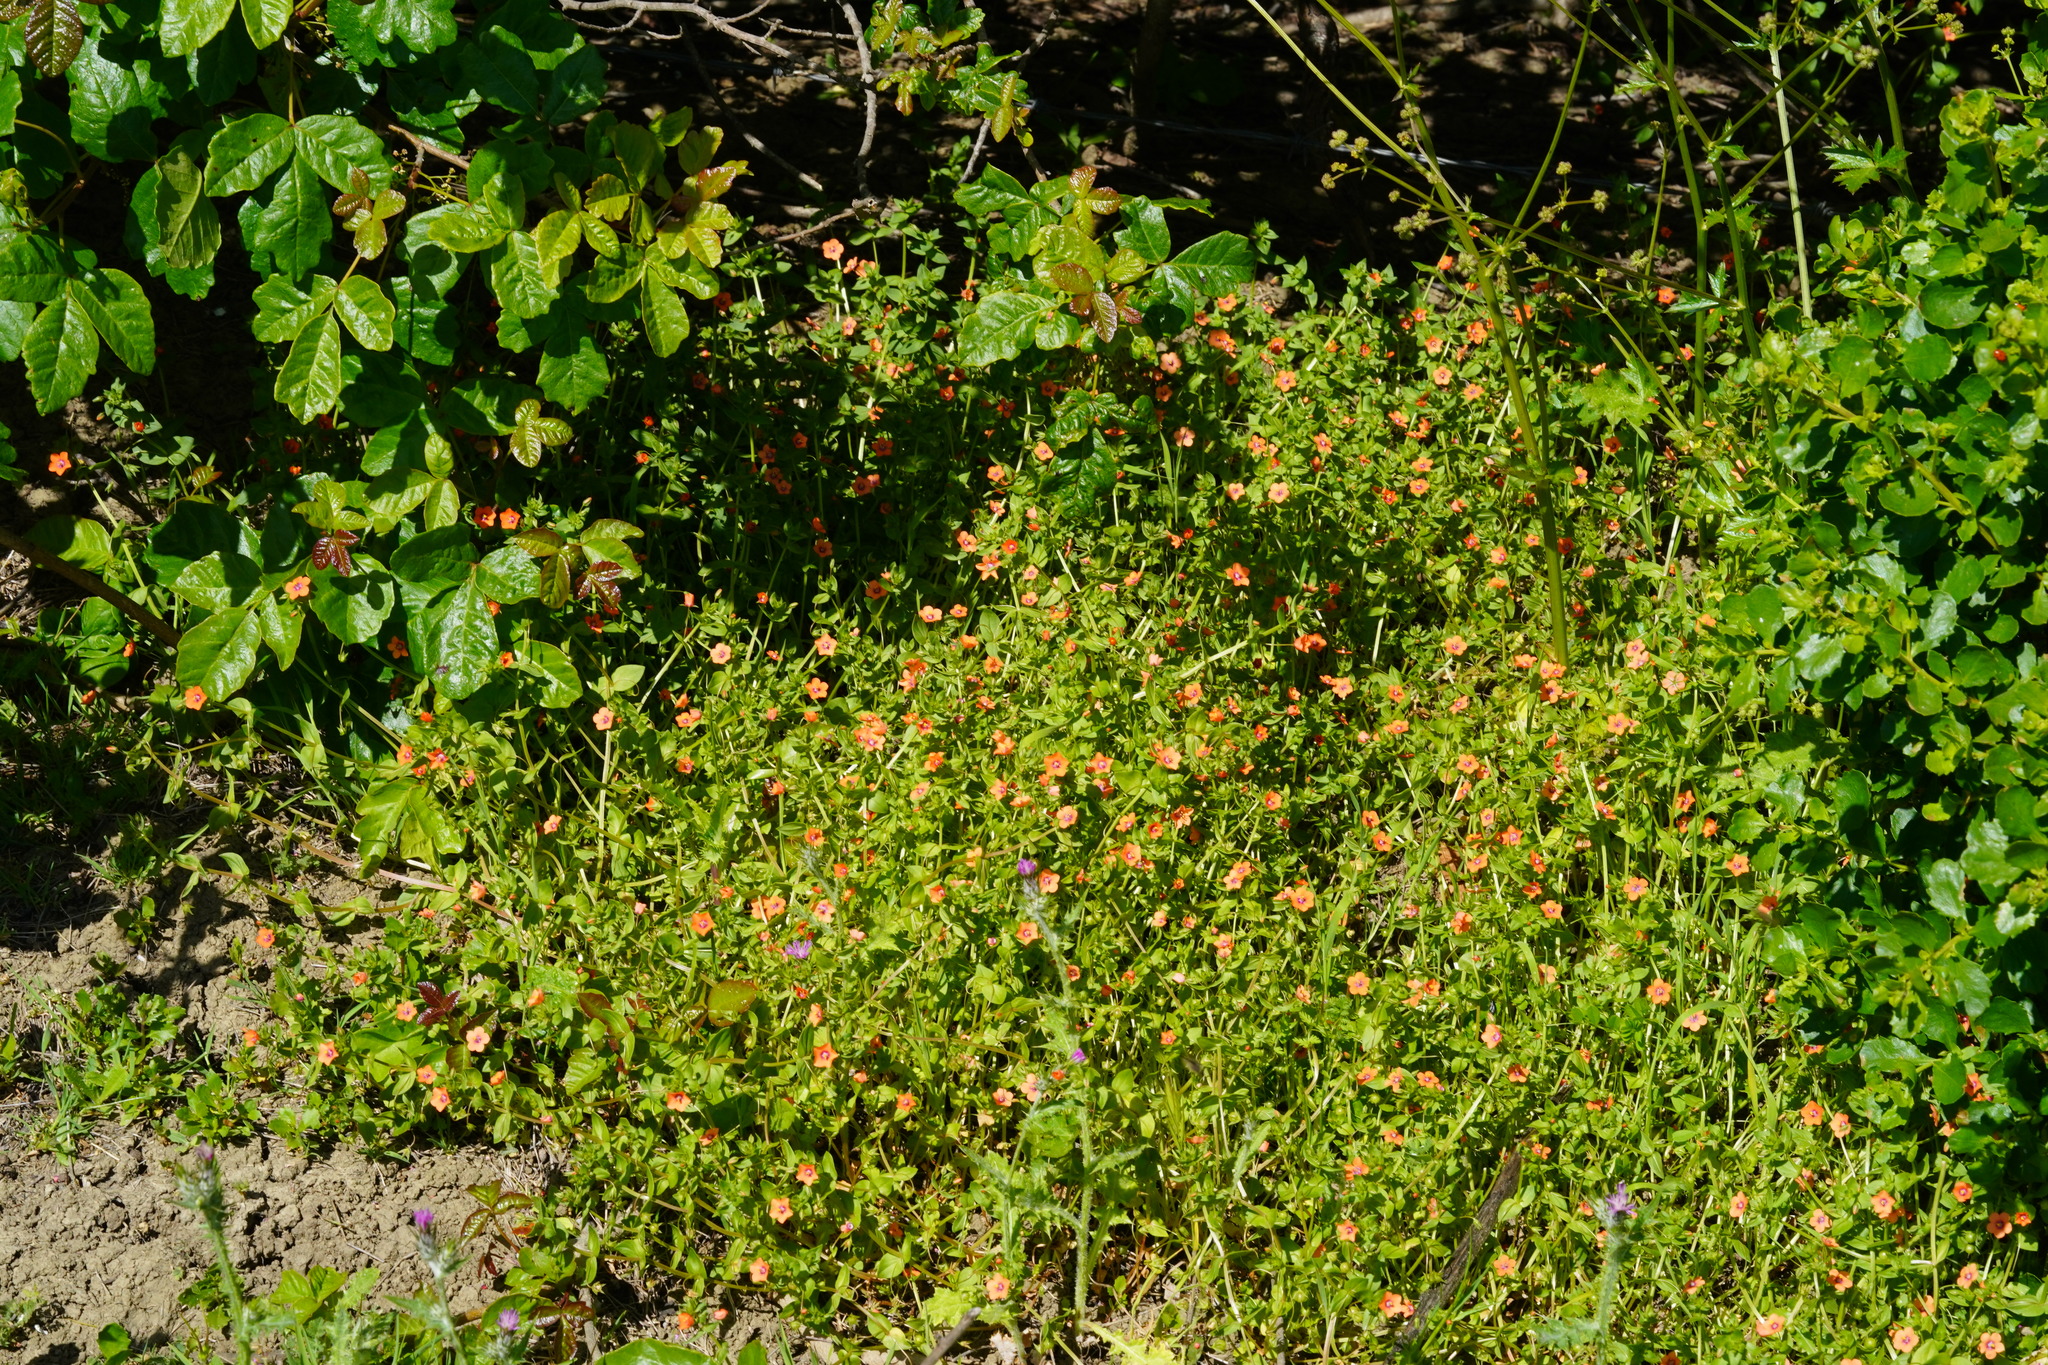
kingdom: Plantae
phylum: Tracheophyta
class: Magnoliopsida
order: Ericales
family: Primulaceae
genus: Lysimachia
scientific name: Lysimachia arvensis
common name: Scarlet pimpernel
